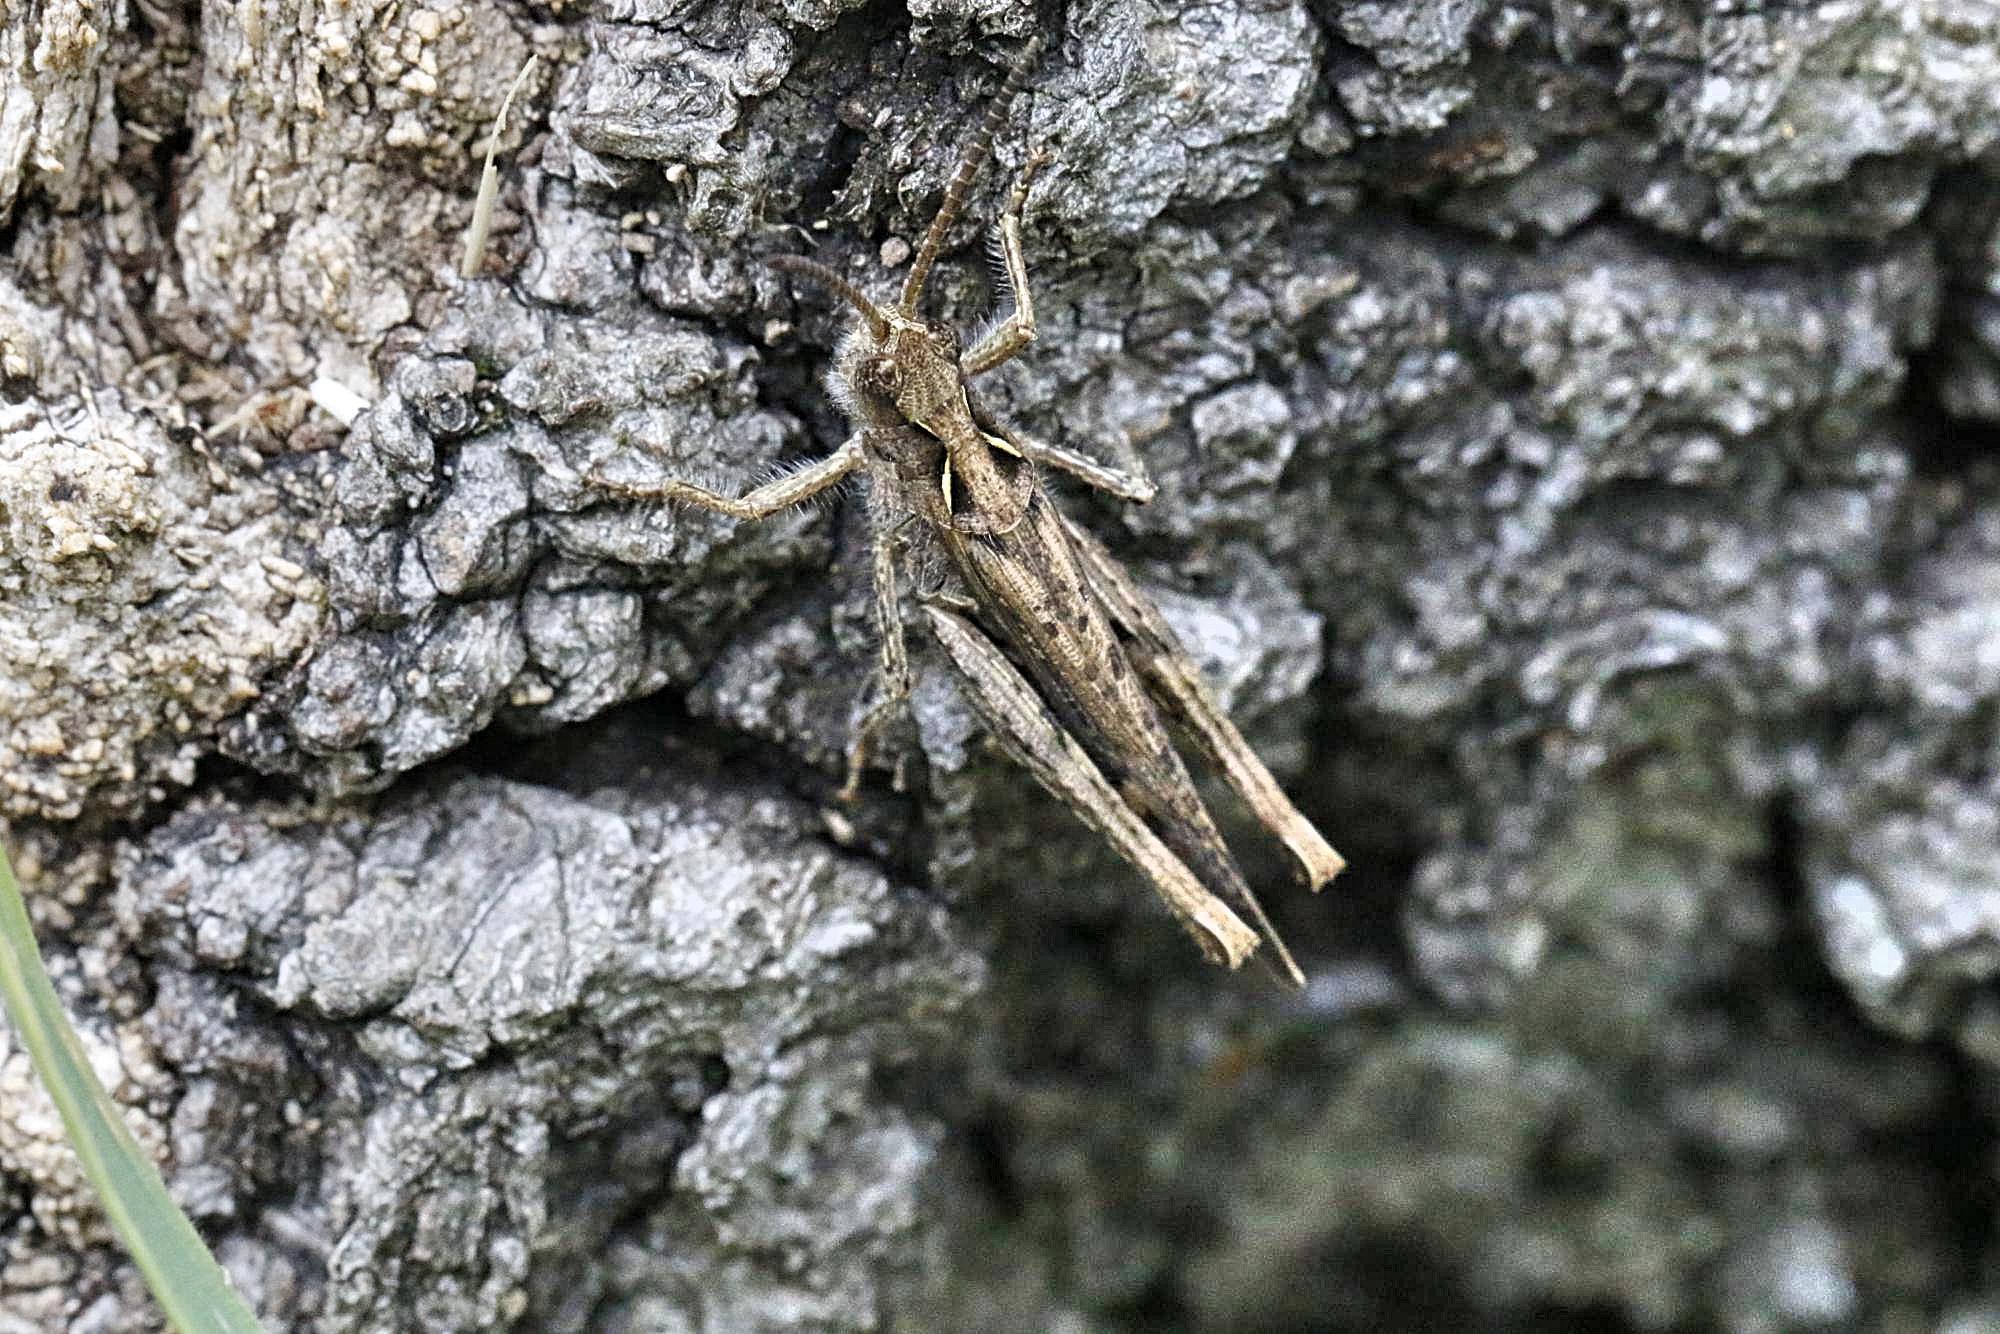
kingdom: Animalia
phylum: Arthropoda
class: Insecta
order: Orthoptera
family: Acrididae
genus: Chorthippus
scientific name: Chorthippus brunneus
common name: Field grasshopper
